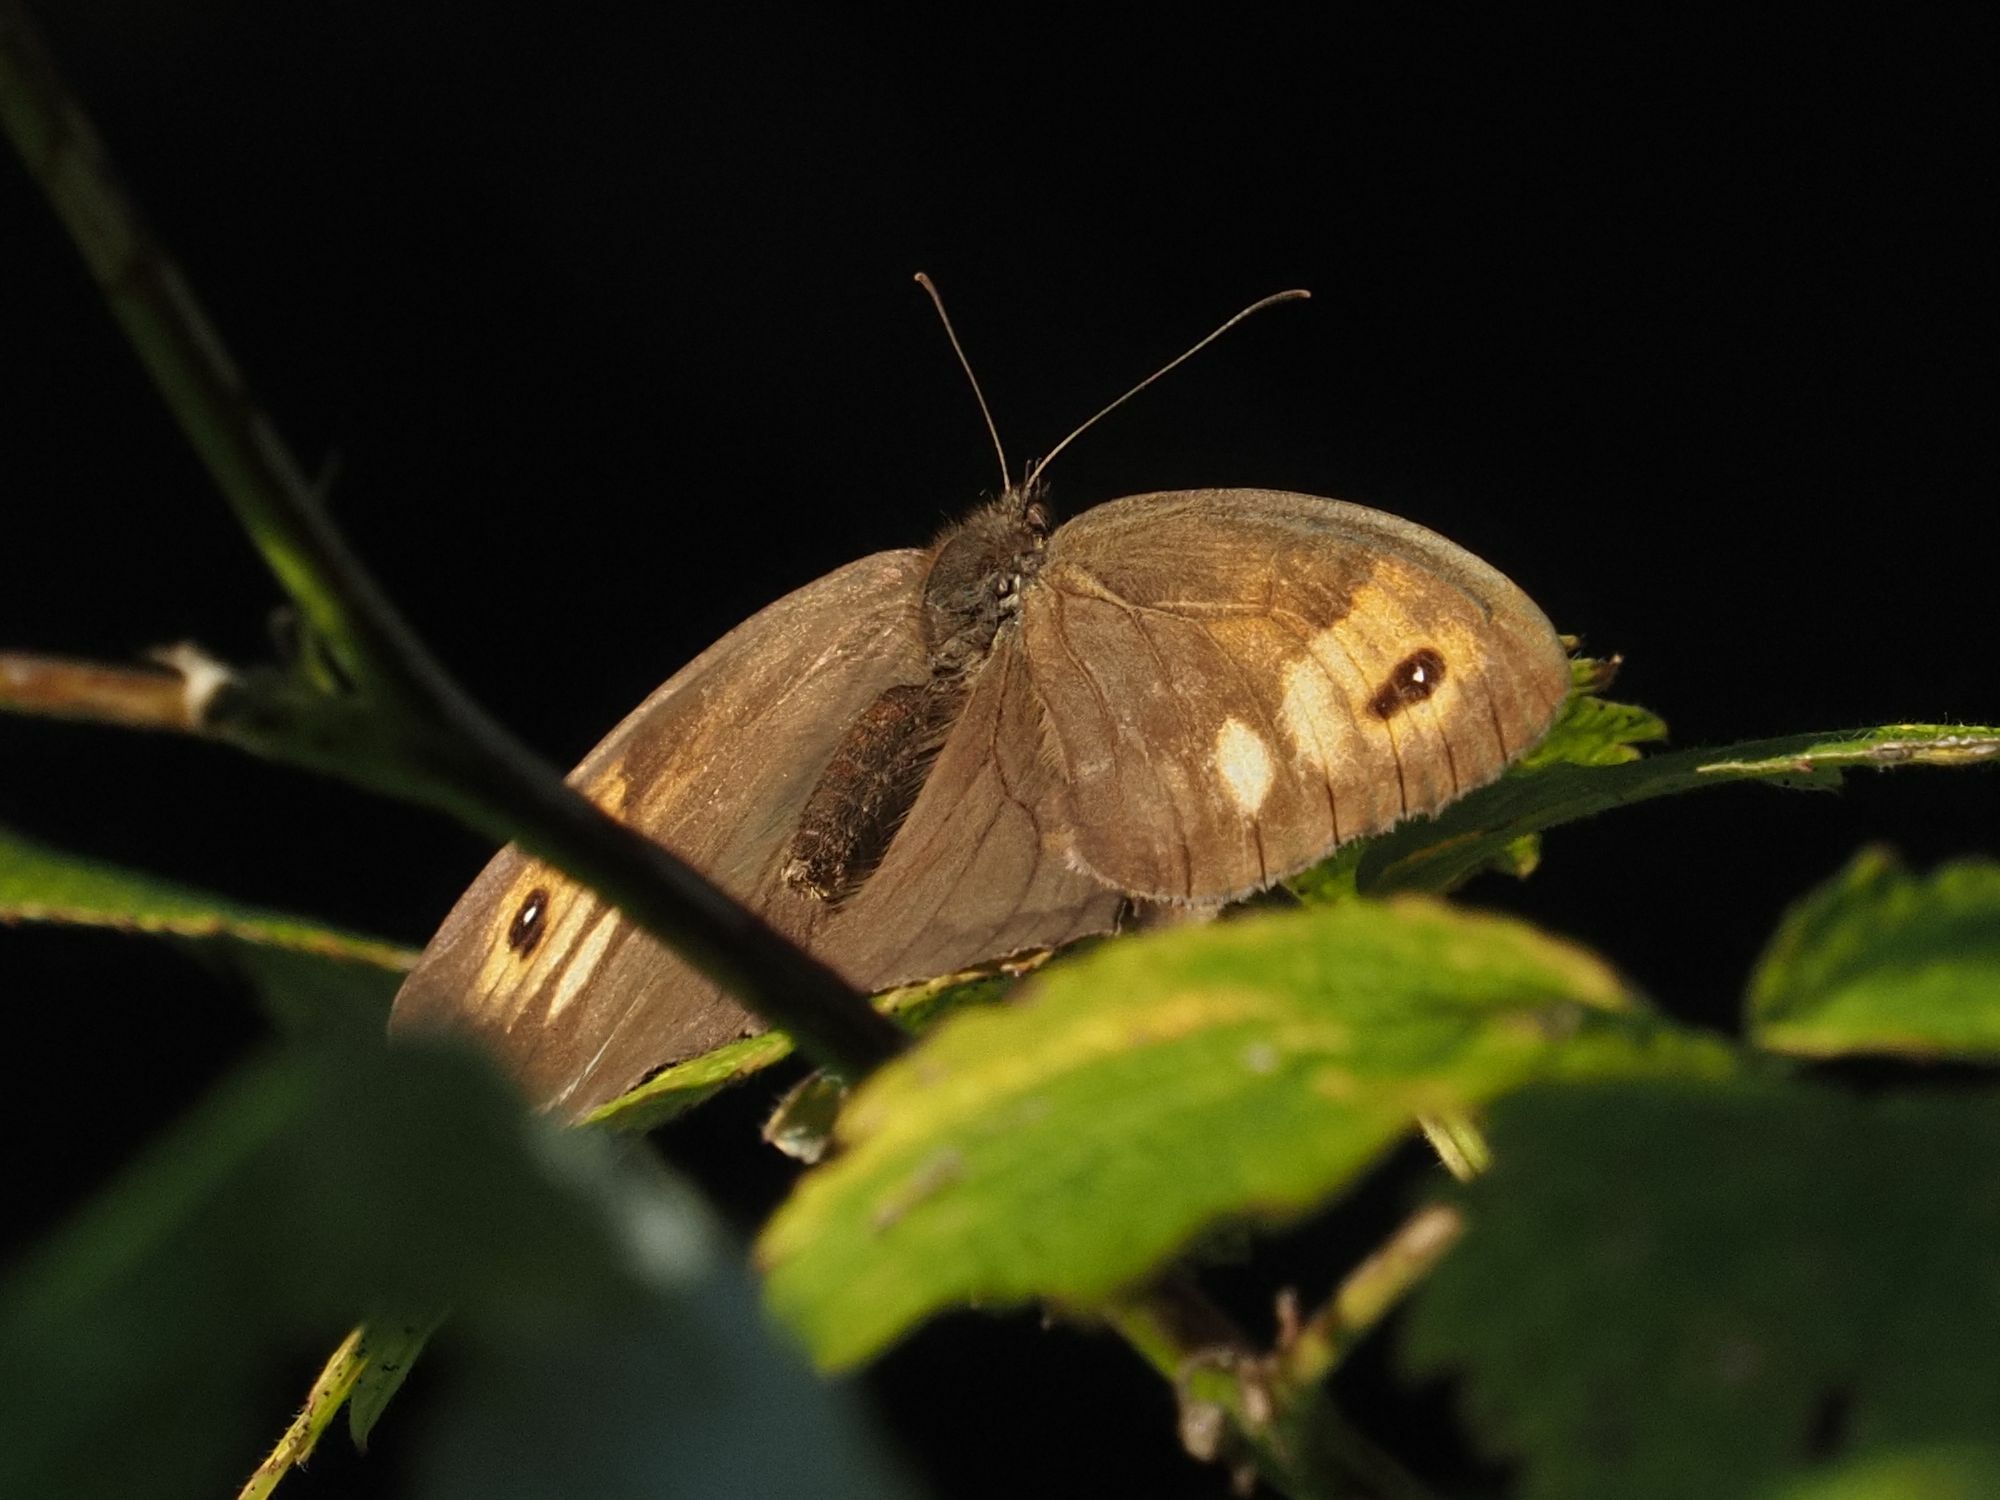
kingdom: Animalia
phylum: Arthropoda
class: Insecta
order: Lepidoptera
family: Nymphalidae
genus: Maniola
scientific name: Maniola jurtina
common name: Meadow brown
